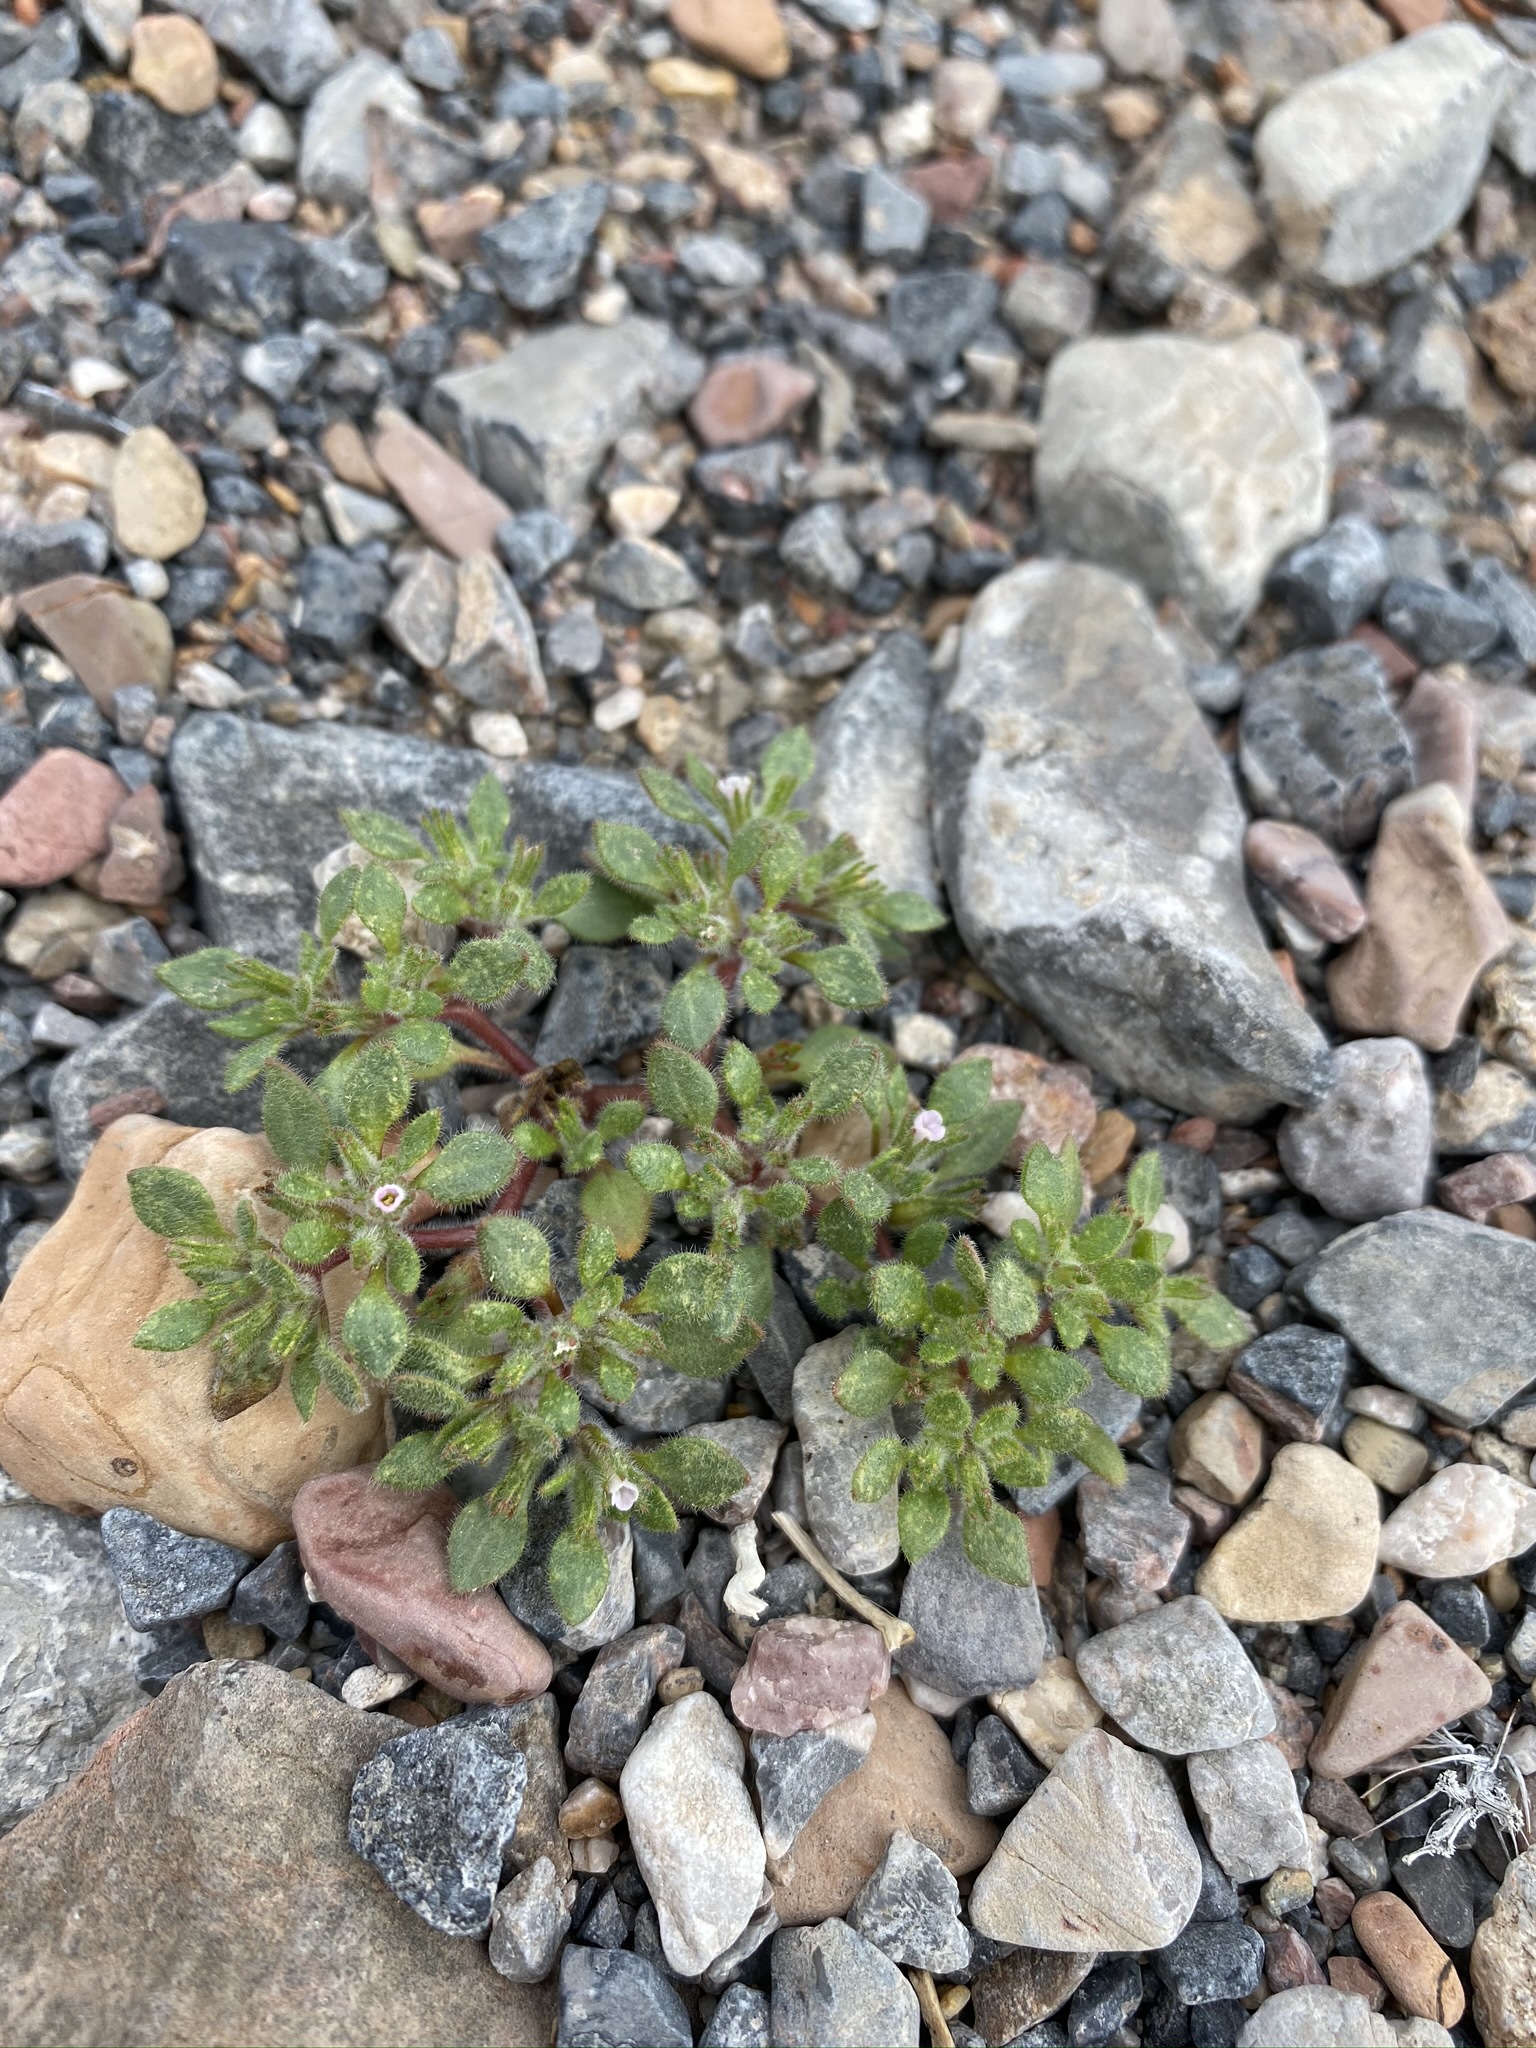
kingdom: Plantae
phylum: Tracheophyta
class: Magnoliopsida
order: Boraginales
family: Namaceae
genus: Nama
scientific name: Nama pusilla
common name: Eggleaf nama
